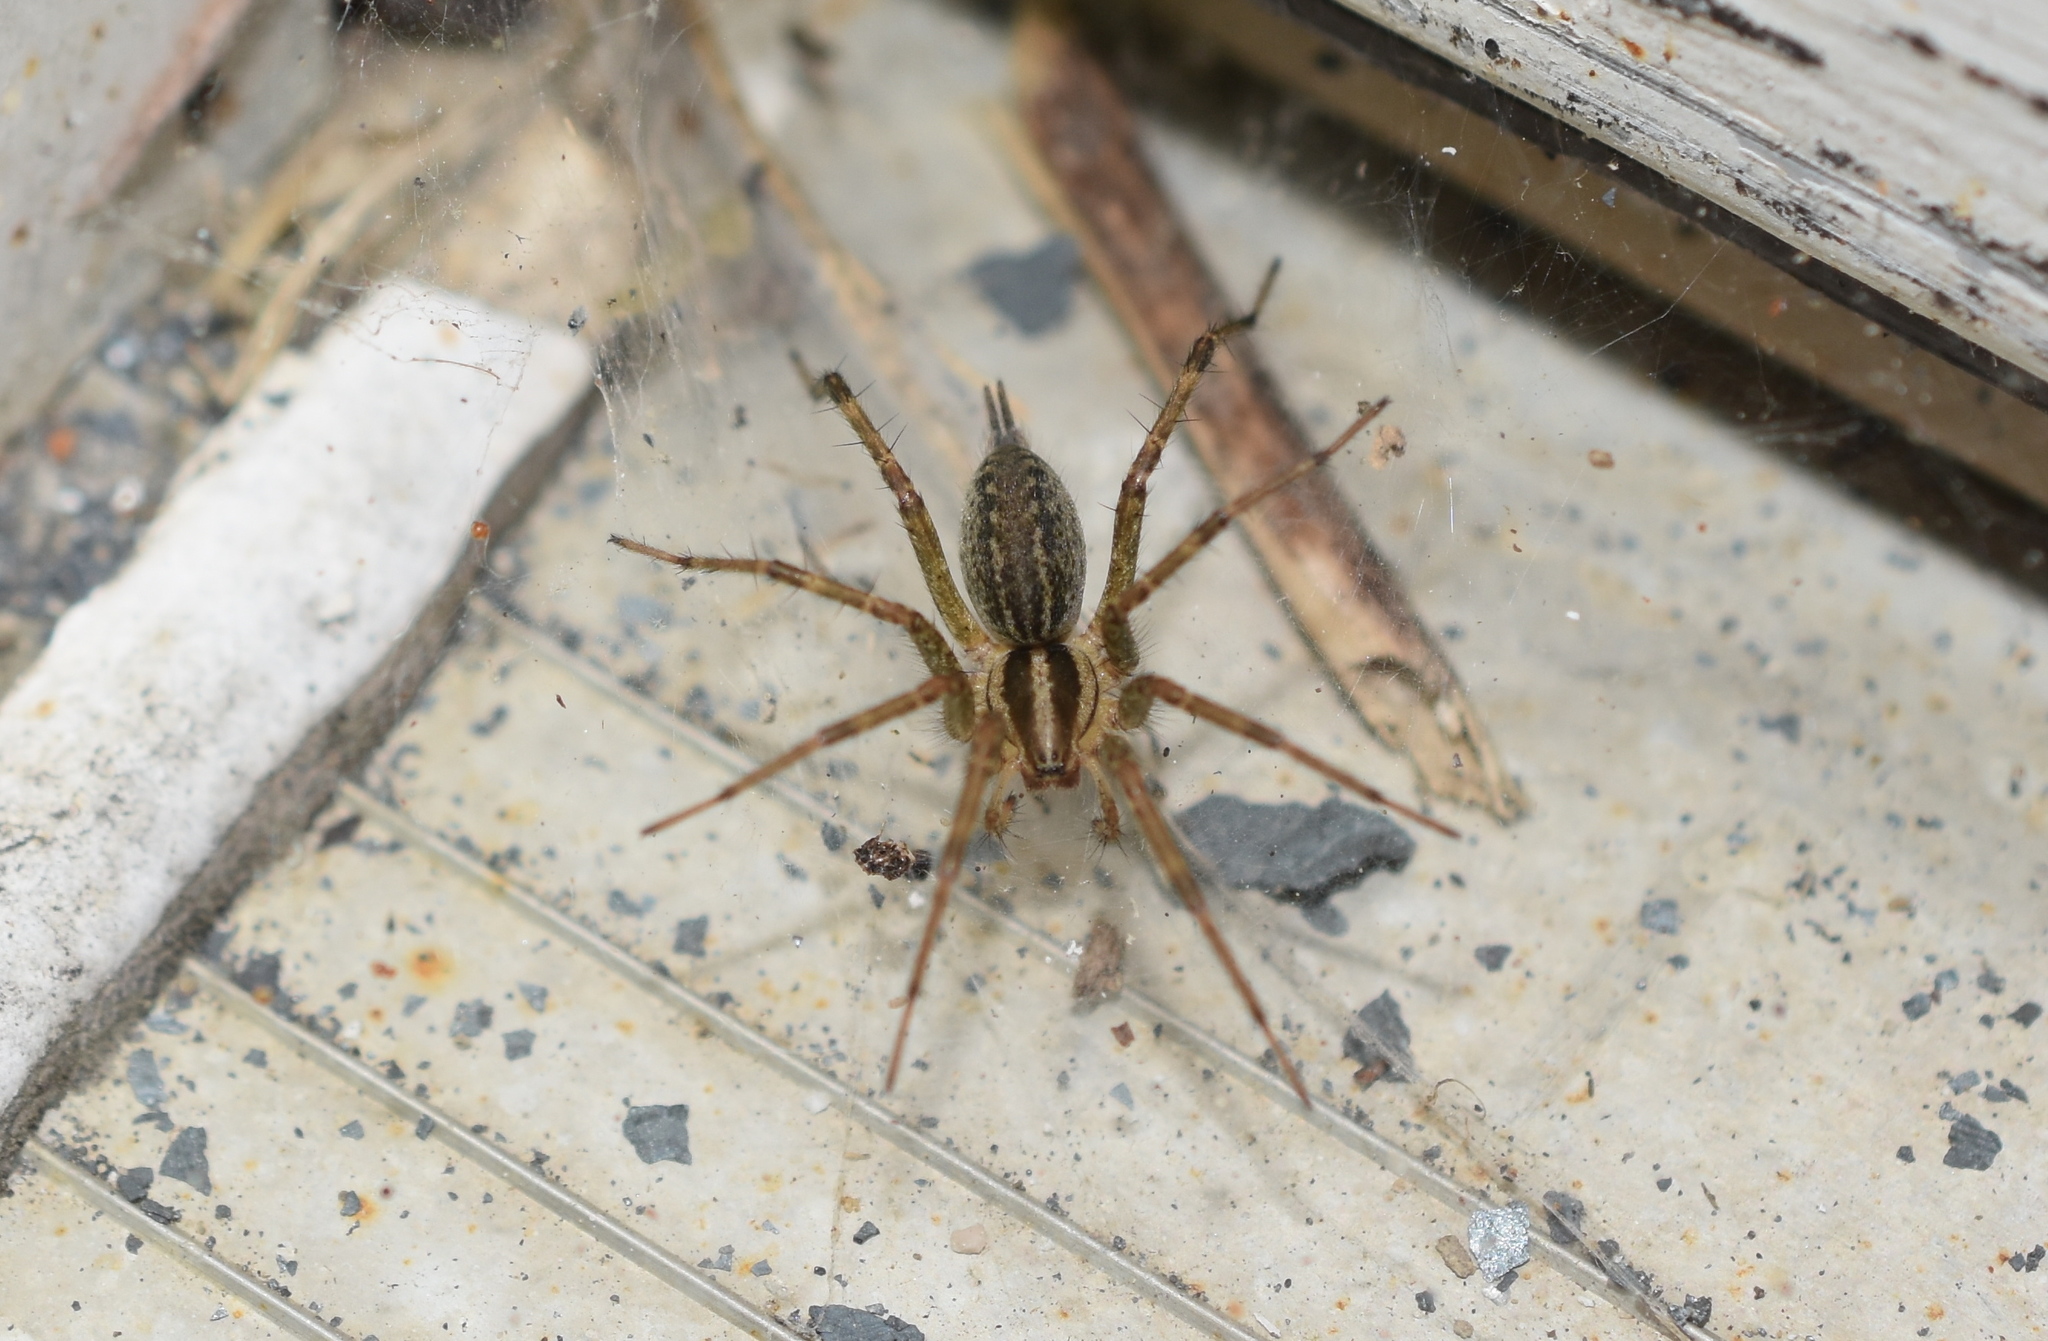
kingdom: Animalia
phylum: Arthropoda
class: Arachnida
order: Araneae
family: Agelenidae
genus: Agelenopsis
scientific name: Agelenopsis
